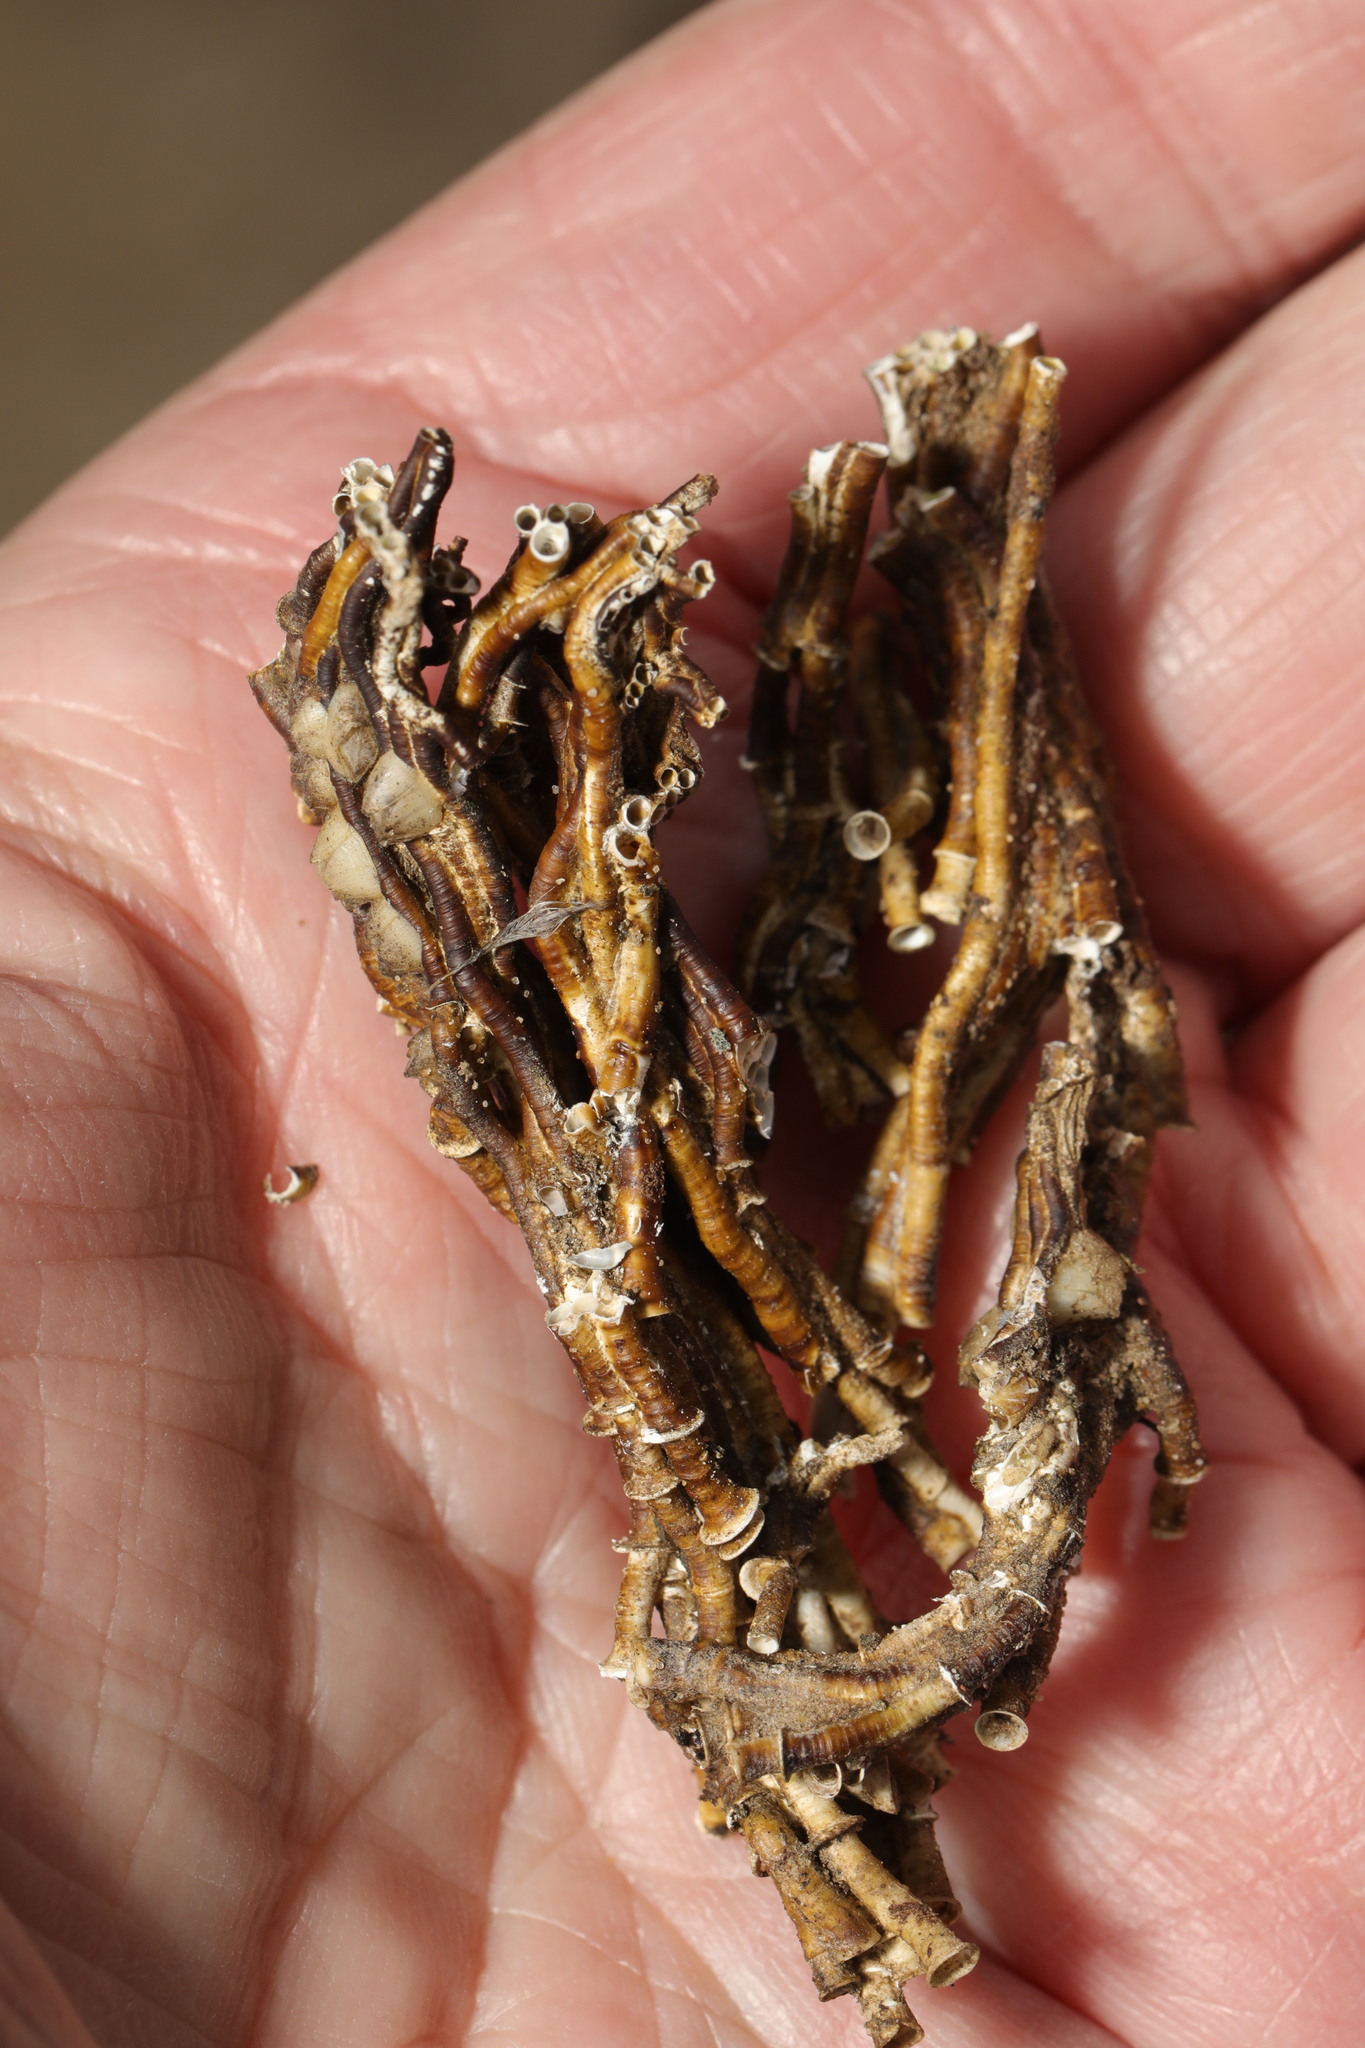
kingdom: Animalia
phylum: Annelida
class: Polychaeta
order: Sabellida
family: Serpulidae
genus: Ficopomatus
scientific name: Ficopomatus enigmaticus
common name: Australian tubeworm
